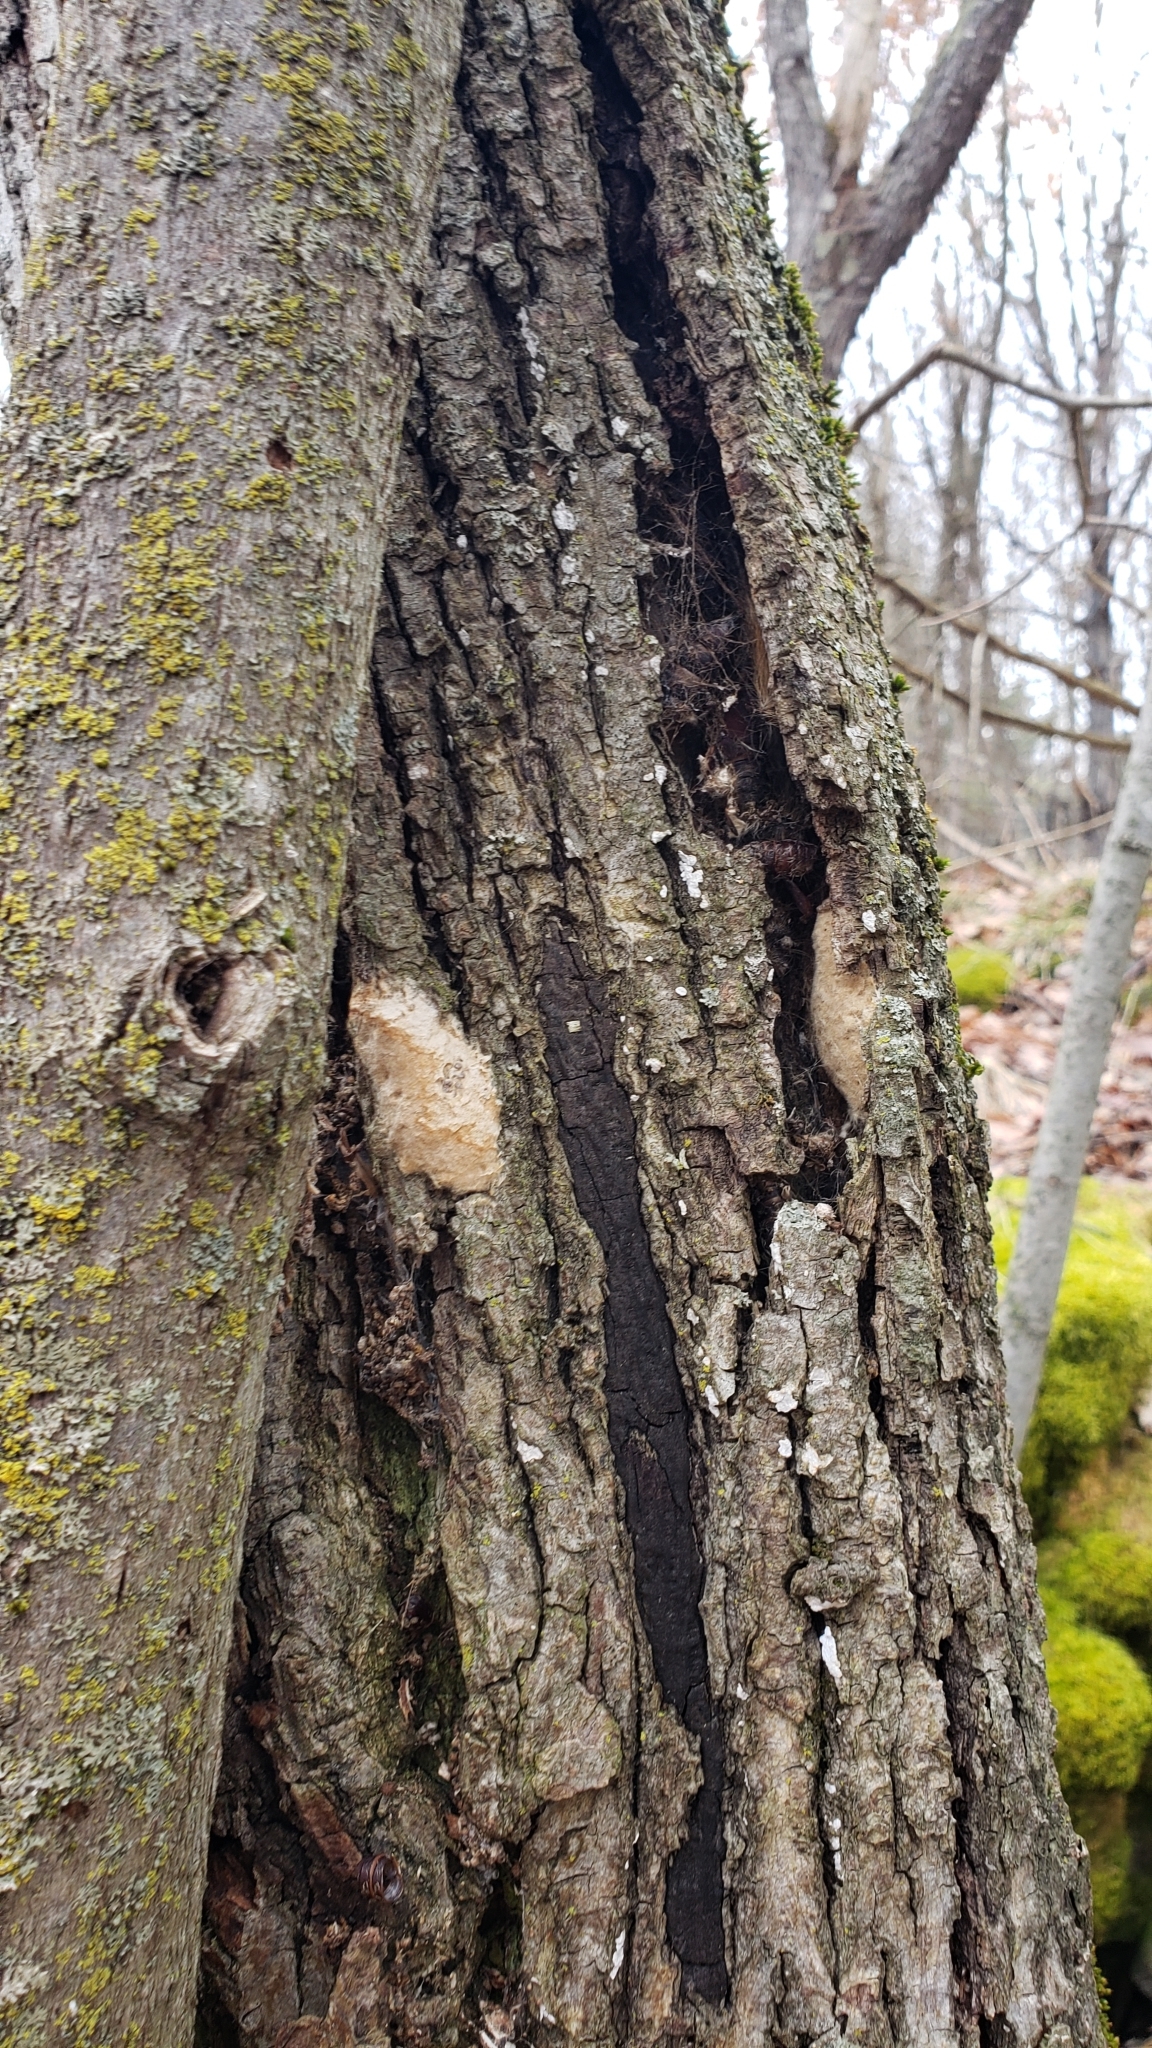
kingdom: Animalia
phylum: Arthropoda
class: Insecta
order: Lepidoptera
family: Erebidae
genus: Lymantria
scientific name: Lymantria dispar
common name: Gypsy moth
